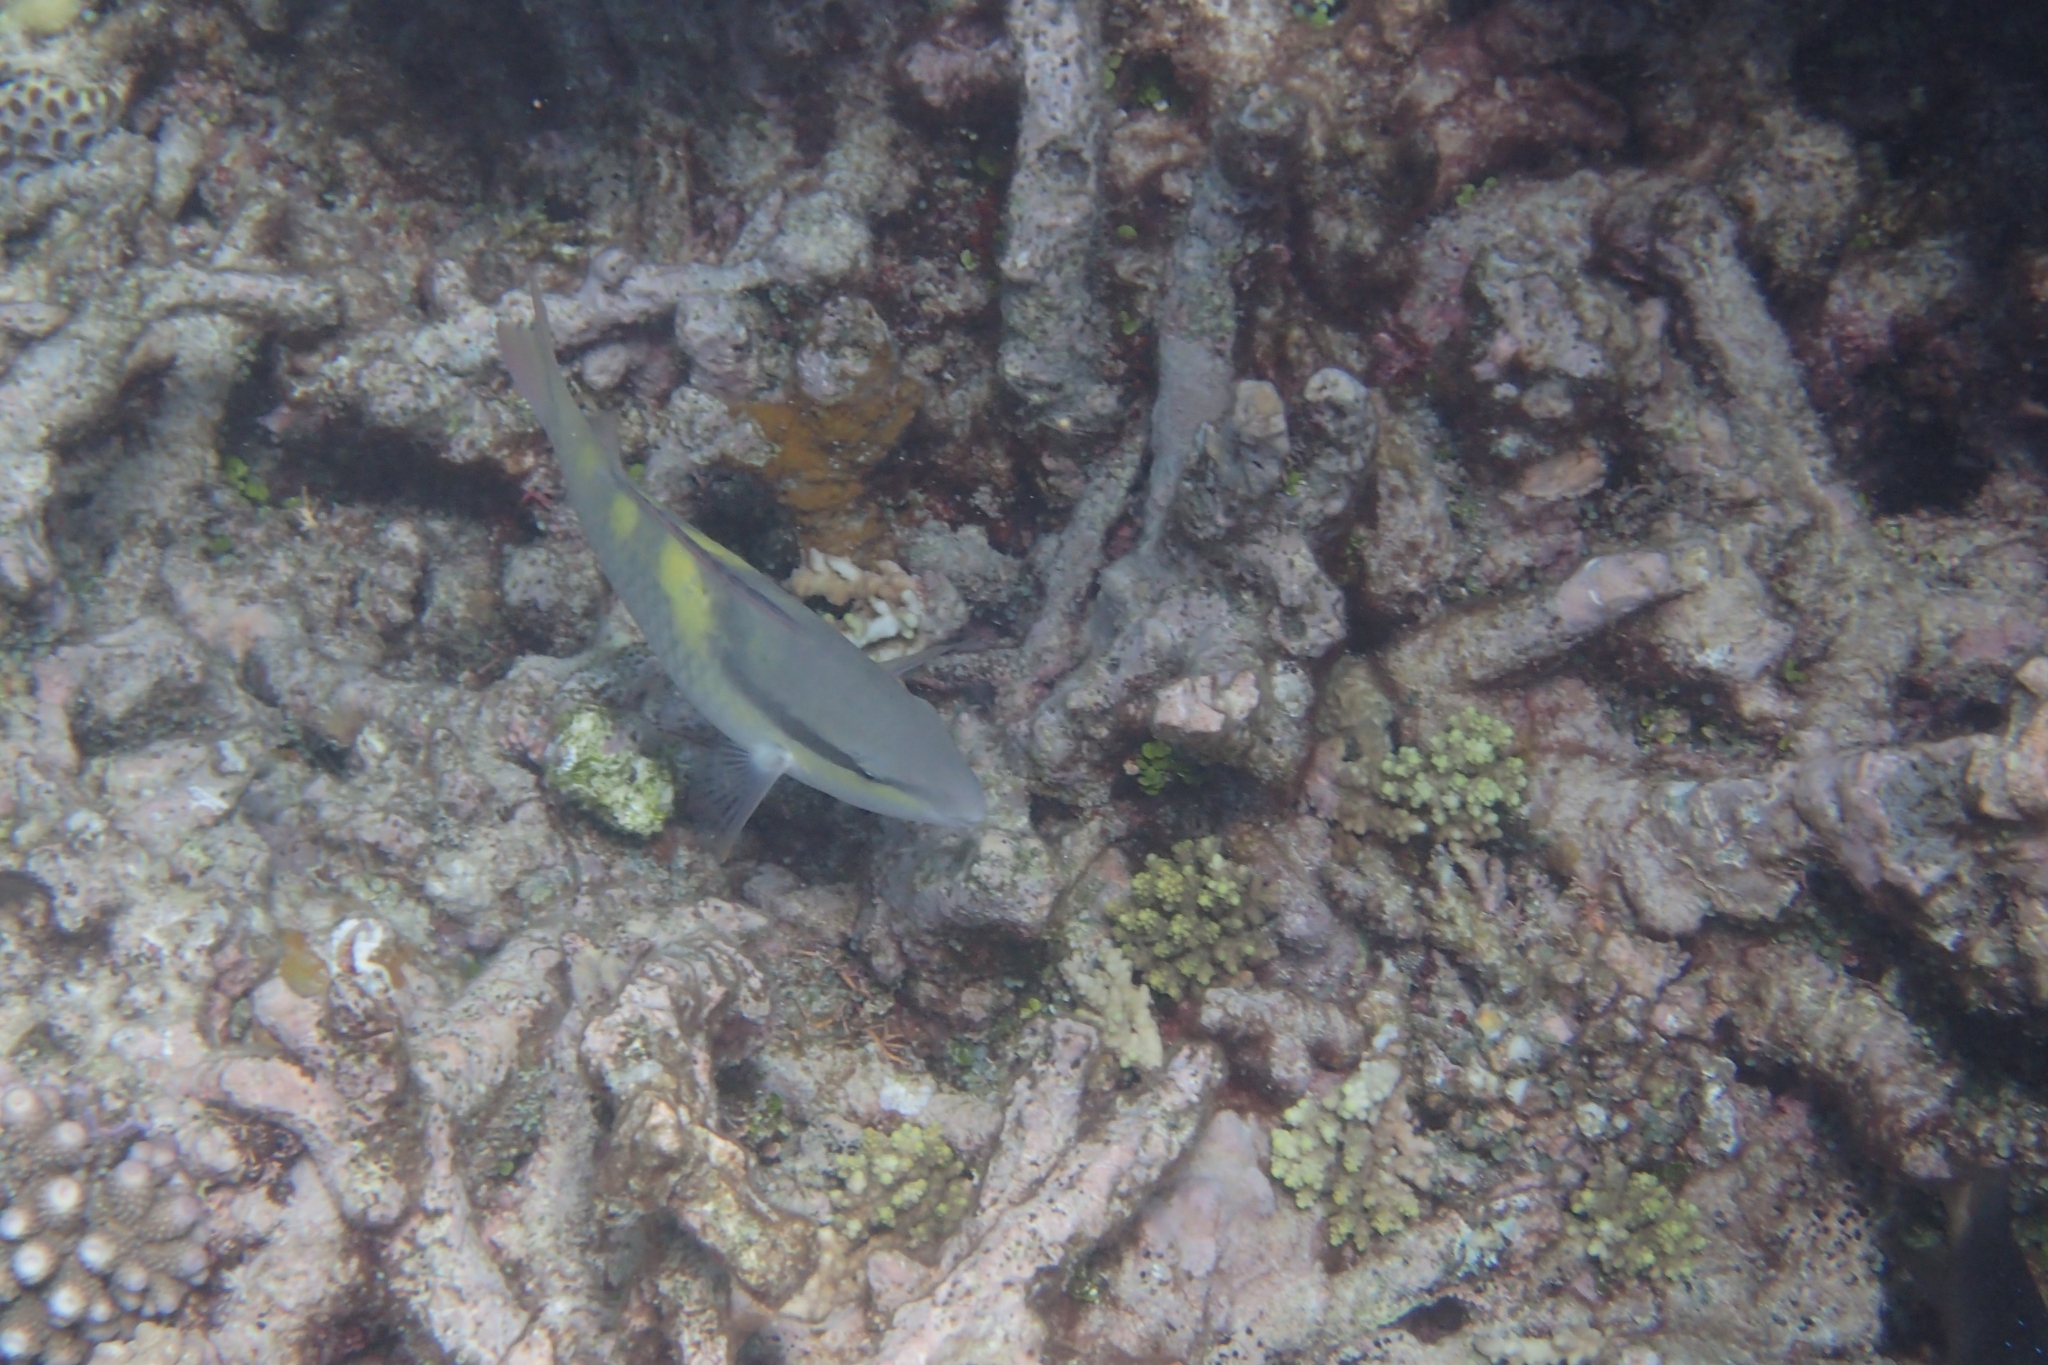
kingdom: Animalia
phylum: Chordata
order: Perciformes
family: Scaridae
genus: Scarus
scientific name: Scarus oviceps
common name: Blue parrotfish
